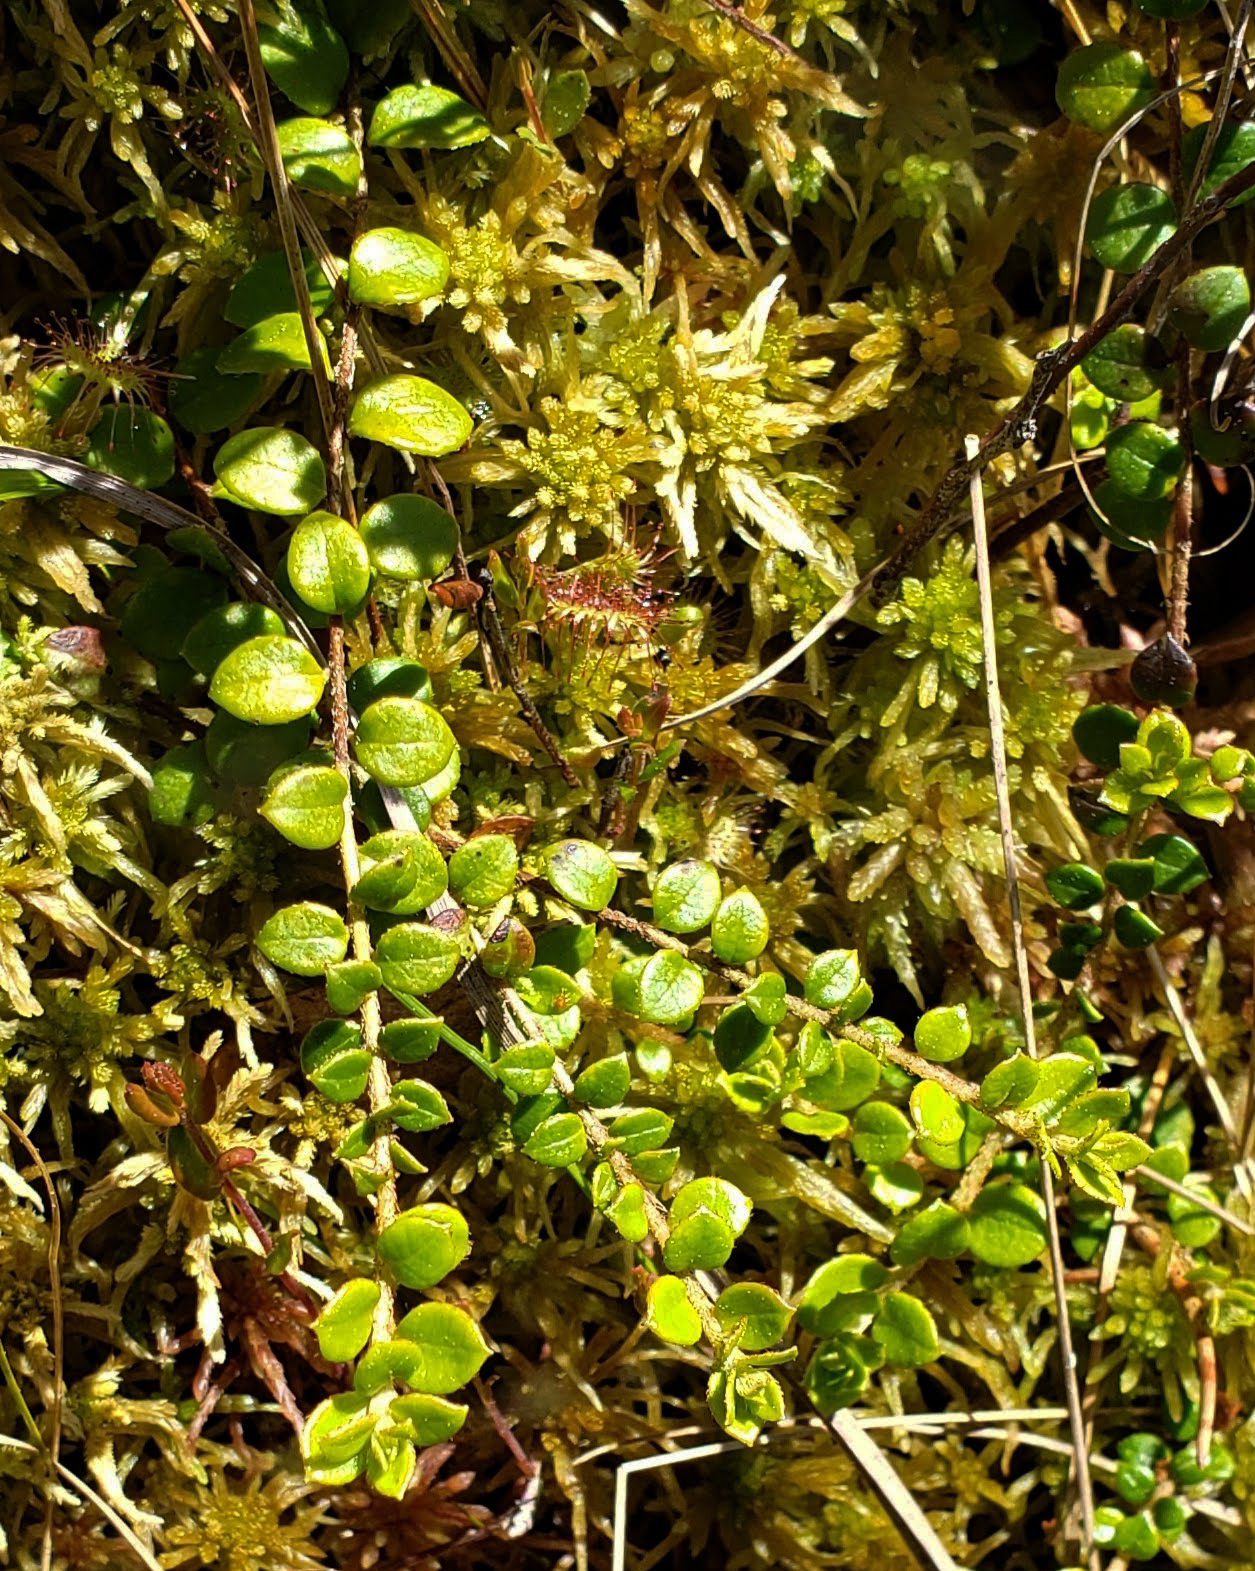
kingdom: Plantae
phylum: Tracheophyta
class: Magnoliopsida
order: Ericales
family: Ericaceae
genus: Gaultheria
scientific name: Gaultheria hispidula
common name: Cancer wintergreen
